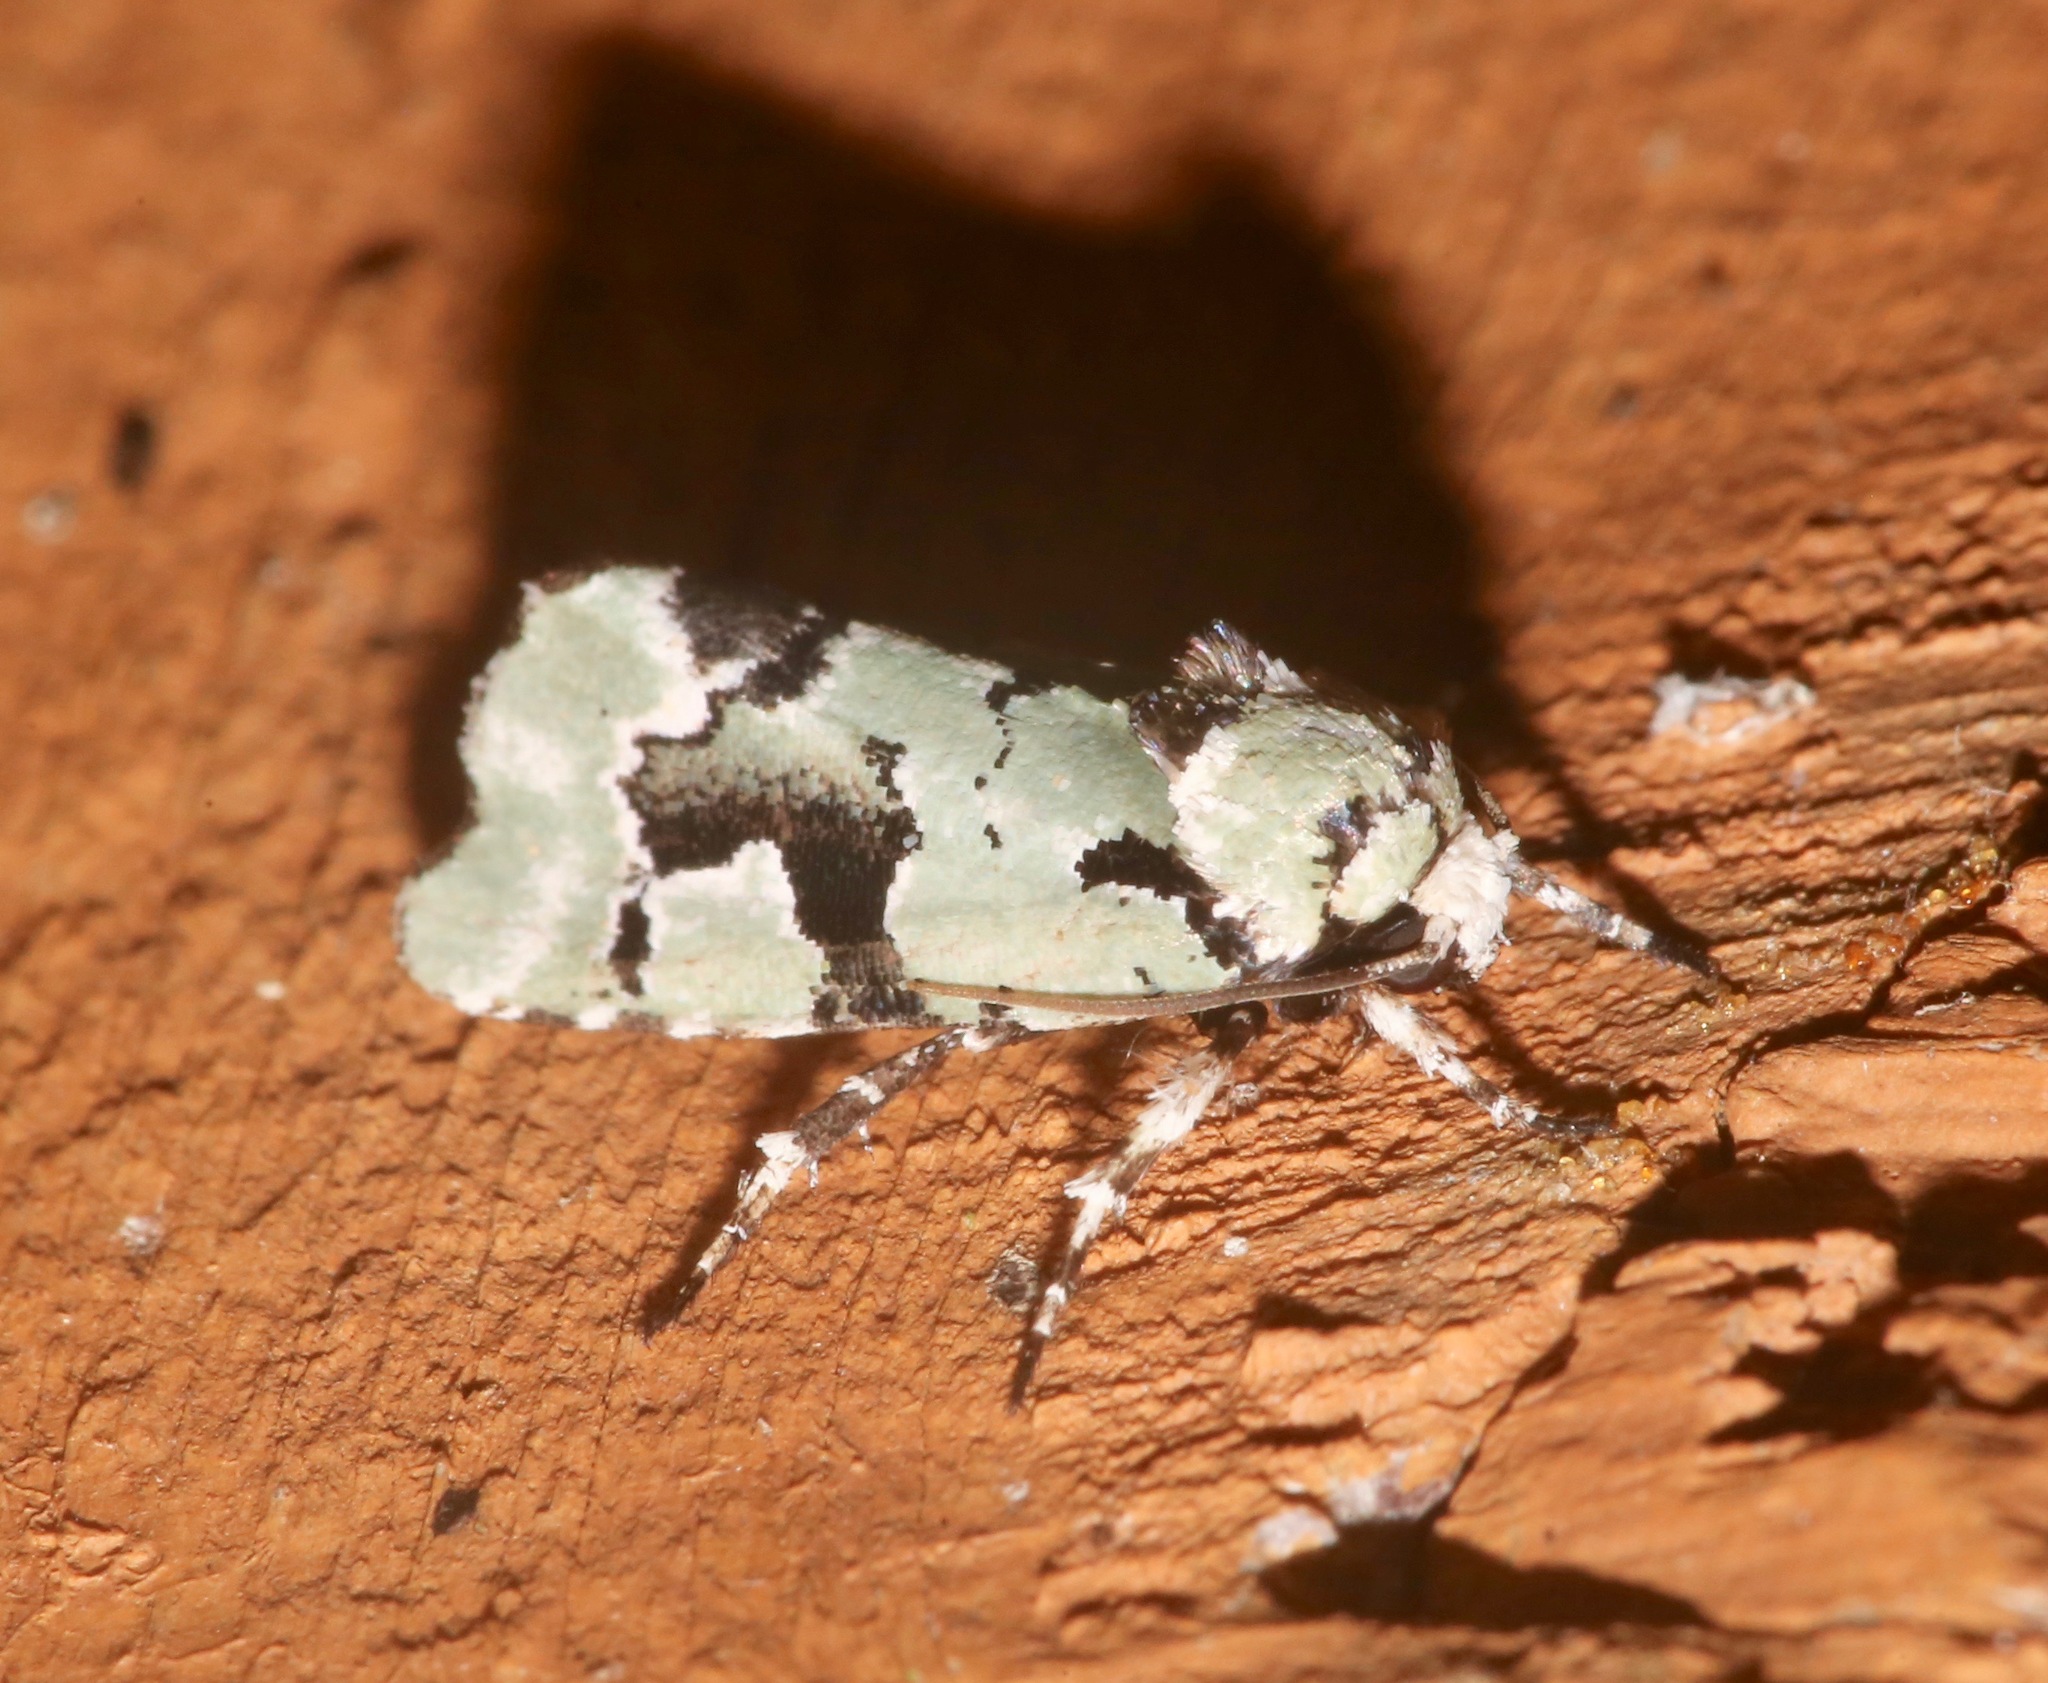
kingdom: Animalia
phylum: Arthropoda
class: Insecta
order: Lepidoptera
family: Noctuidae
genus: Emarginea
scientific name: Emarginea percara
